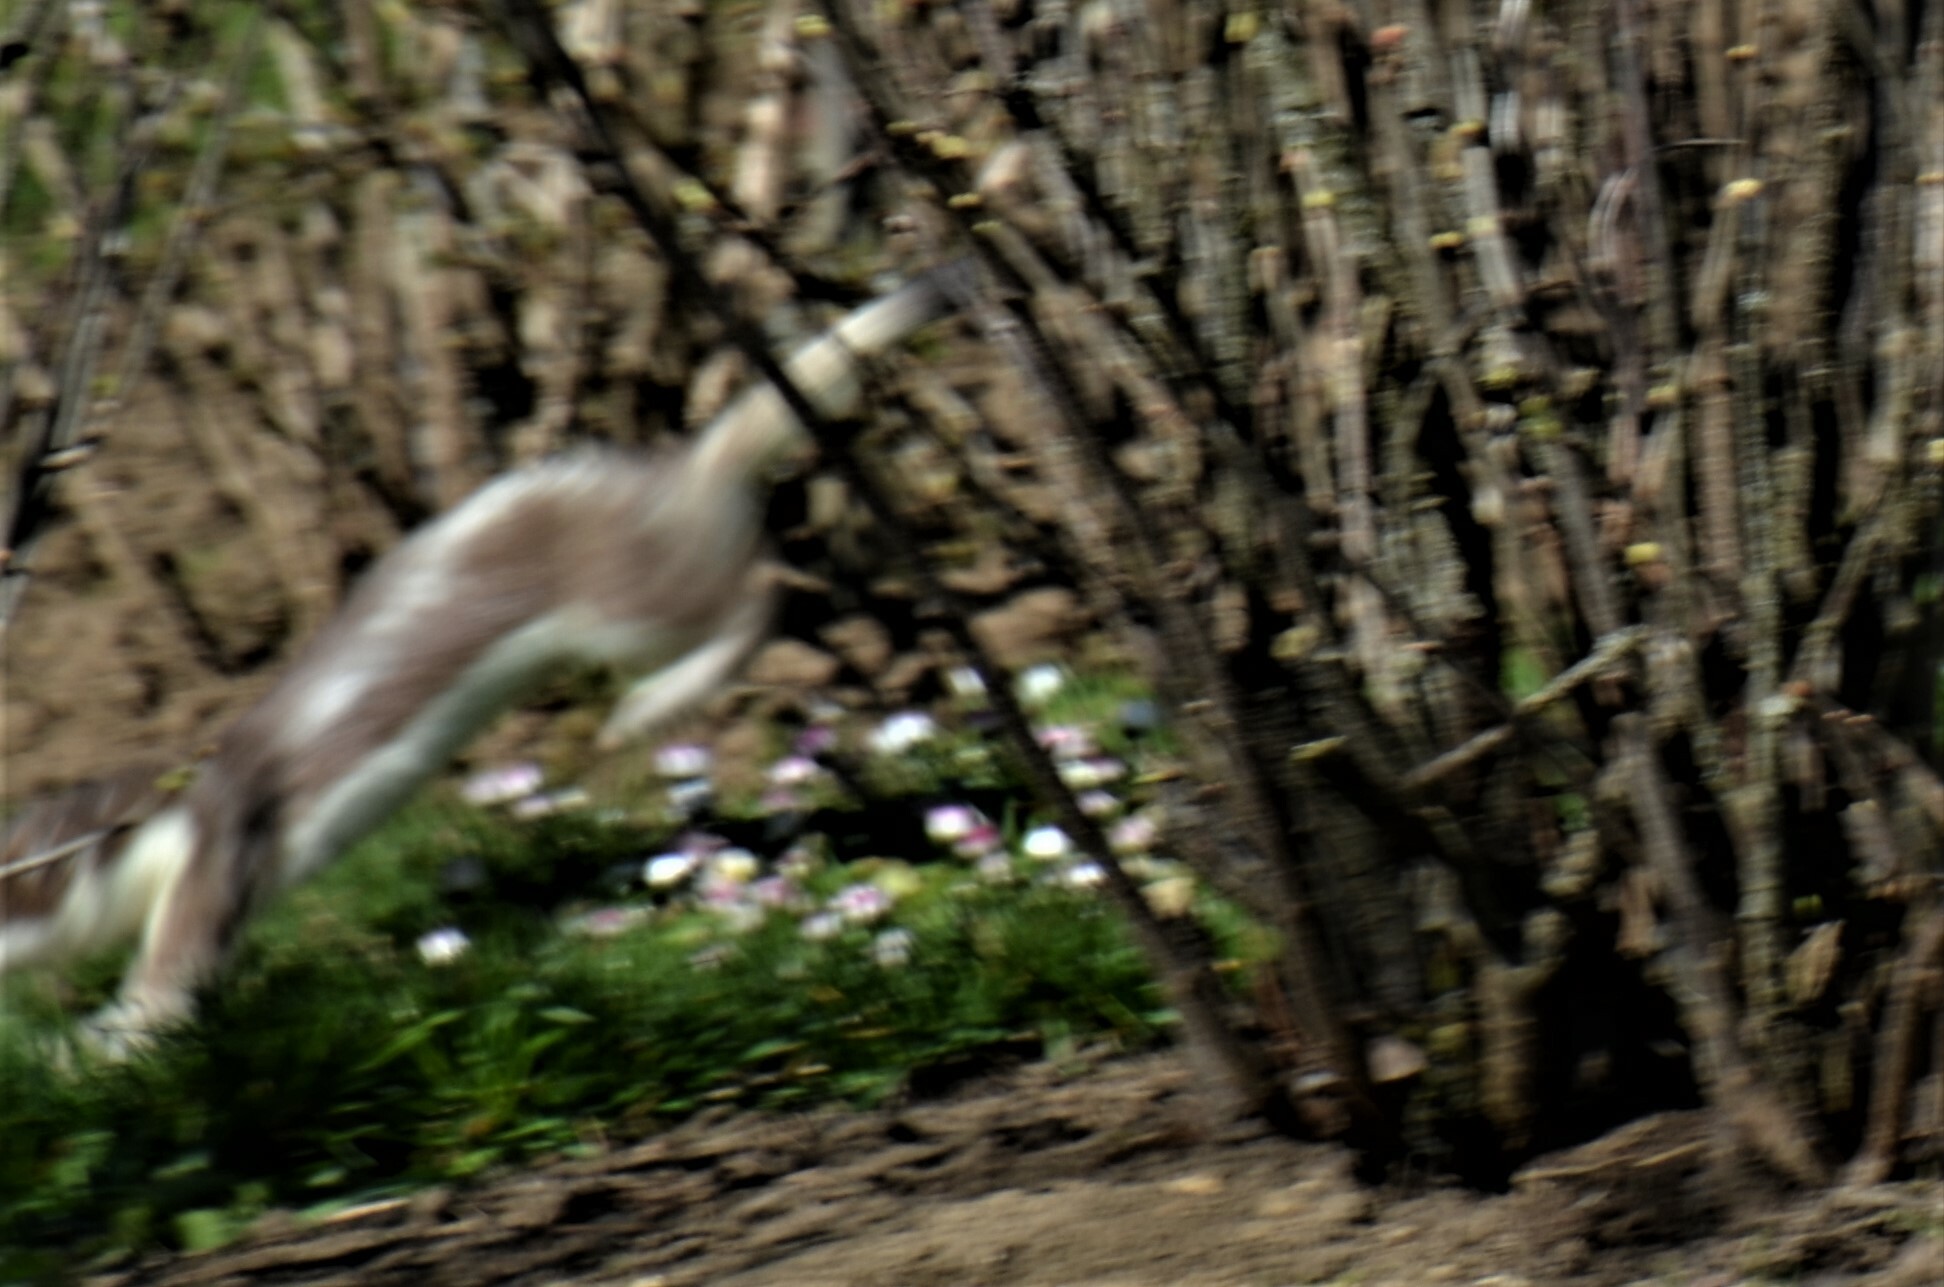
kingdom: Animalia
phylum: Chordata
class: Mammalia
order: Carnivora
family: Mustelidae
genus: Mustela
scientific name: Mustela erminea
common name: Stoat
